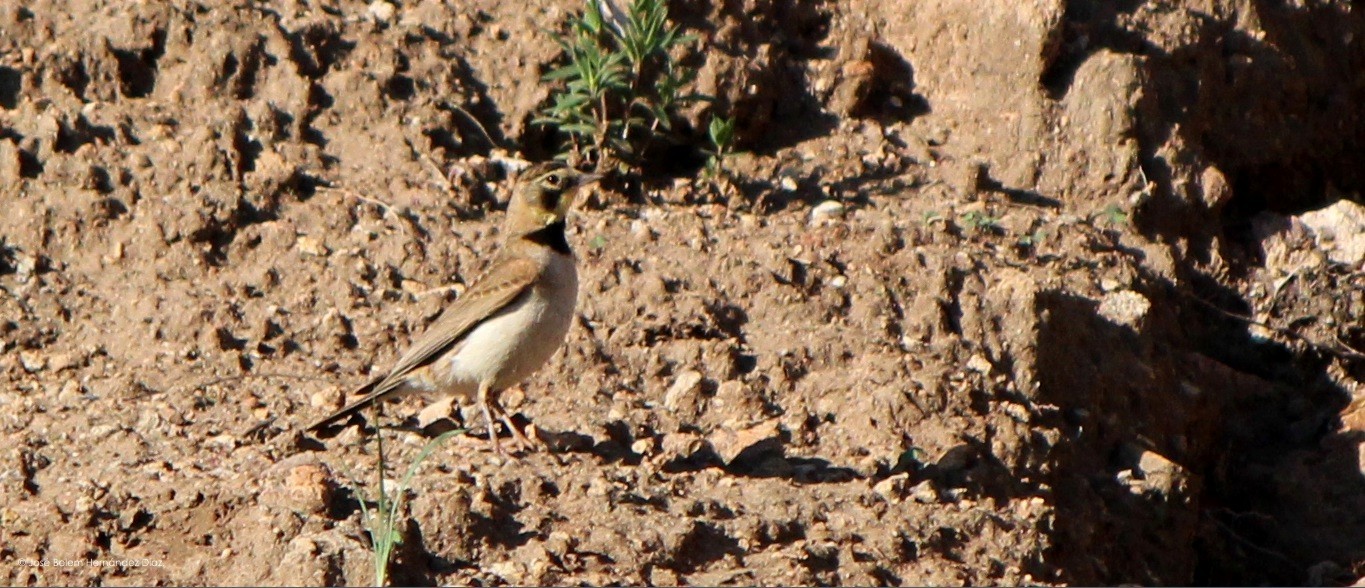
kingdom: Animalia
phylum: Chordata
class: Aves
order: Passeriformes
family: Alaudidae
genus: Eremophila
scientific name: Eremophila alpestris
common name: Horned lark
